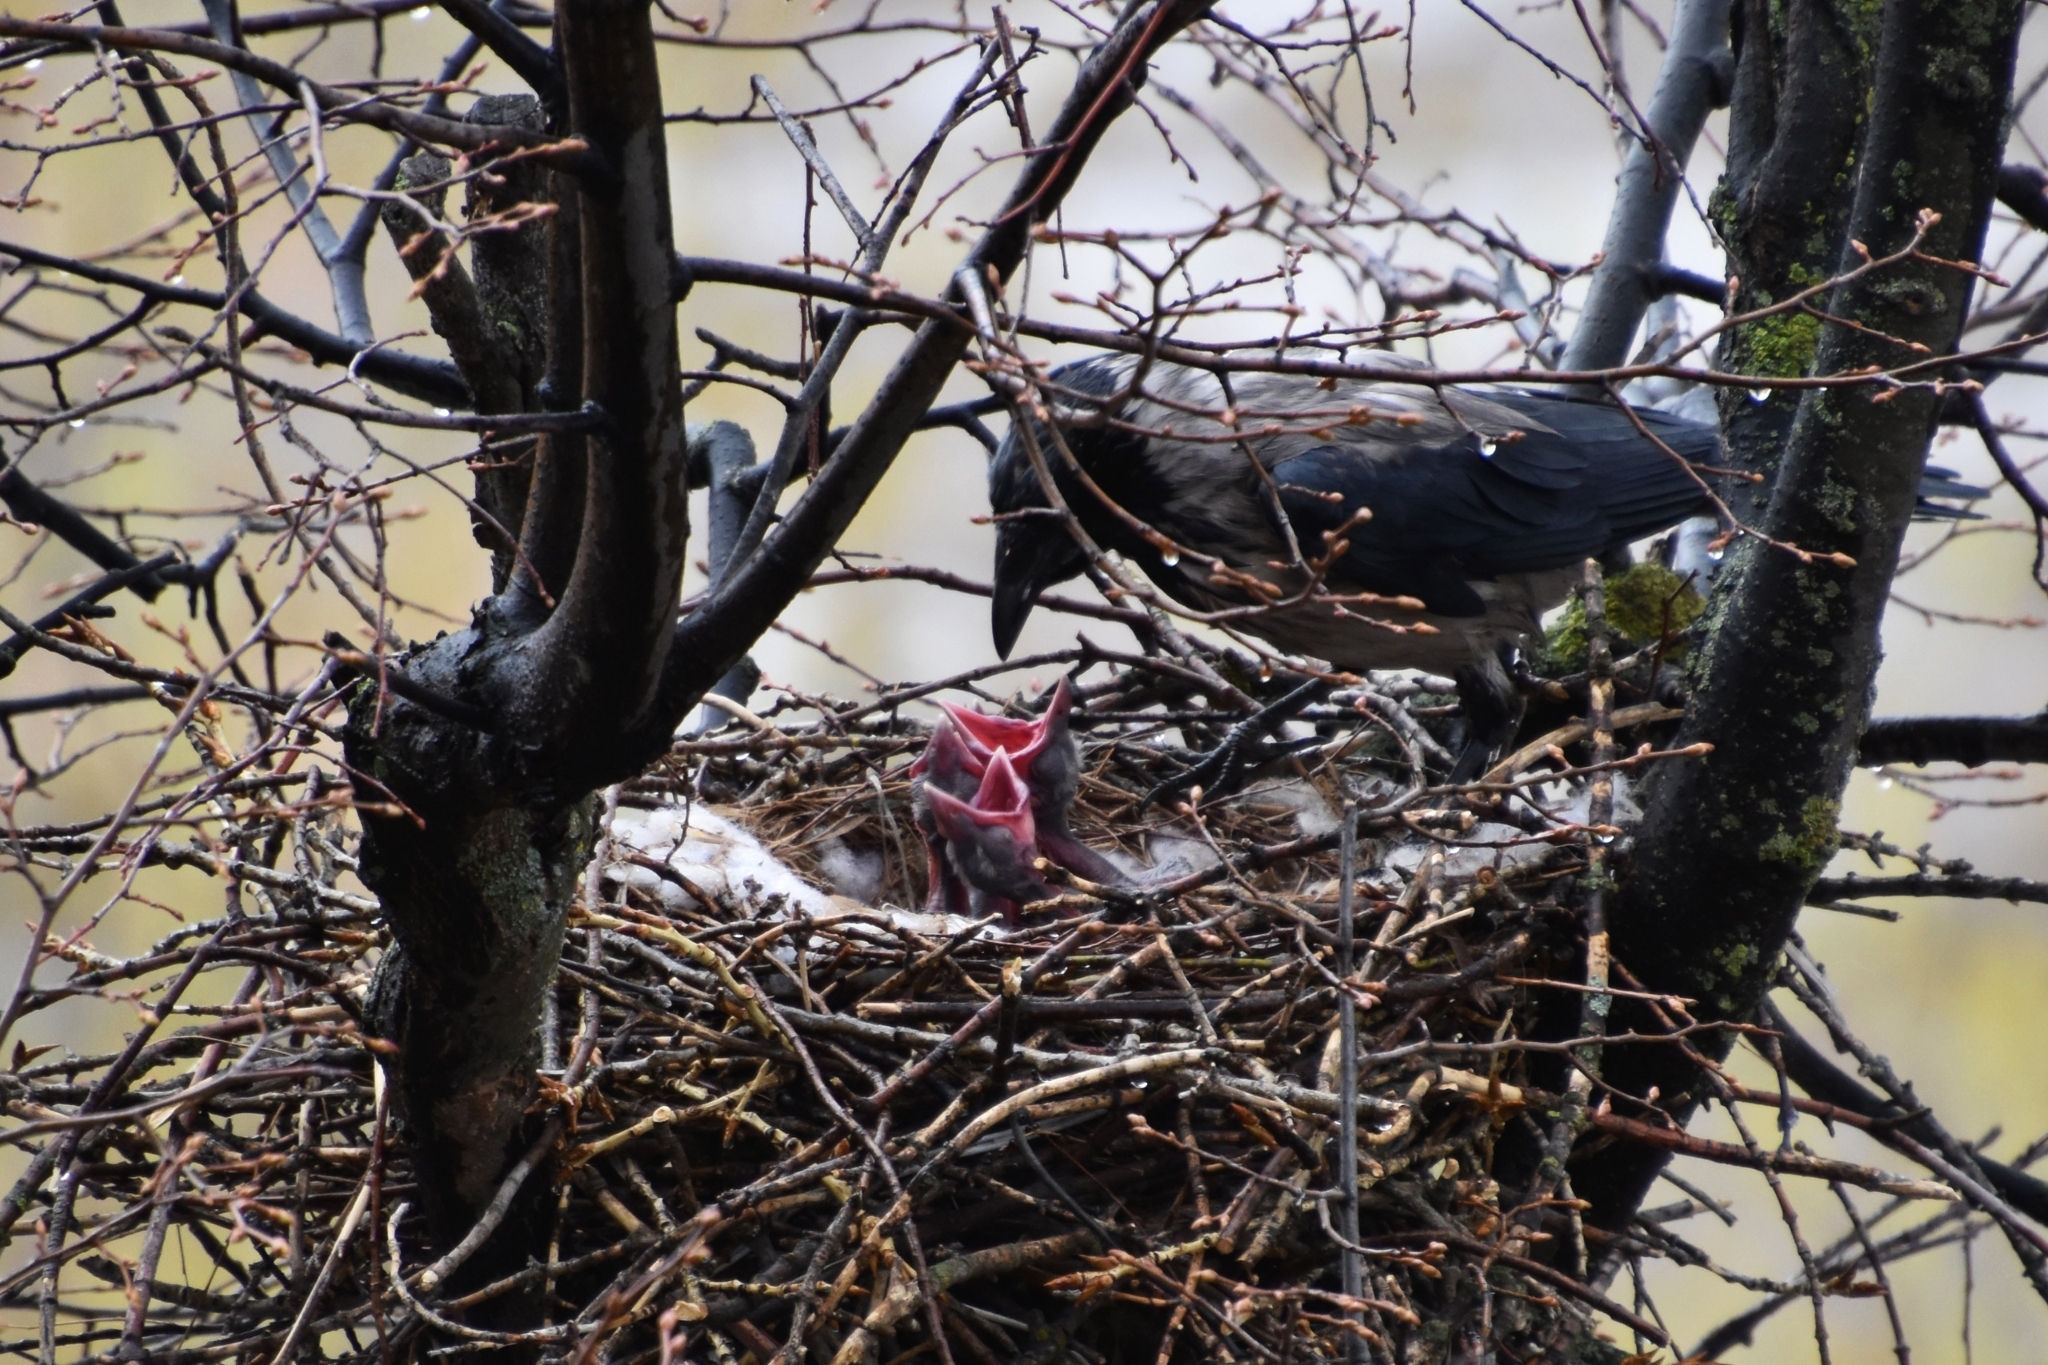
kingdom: Animalia
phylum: Chordata
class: Aves
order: Passeriformes
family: Corvidae
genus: Corvus
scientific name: Corvus cornix
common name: Hooded crow
